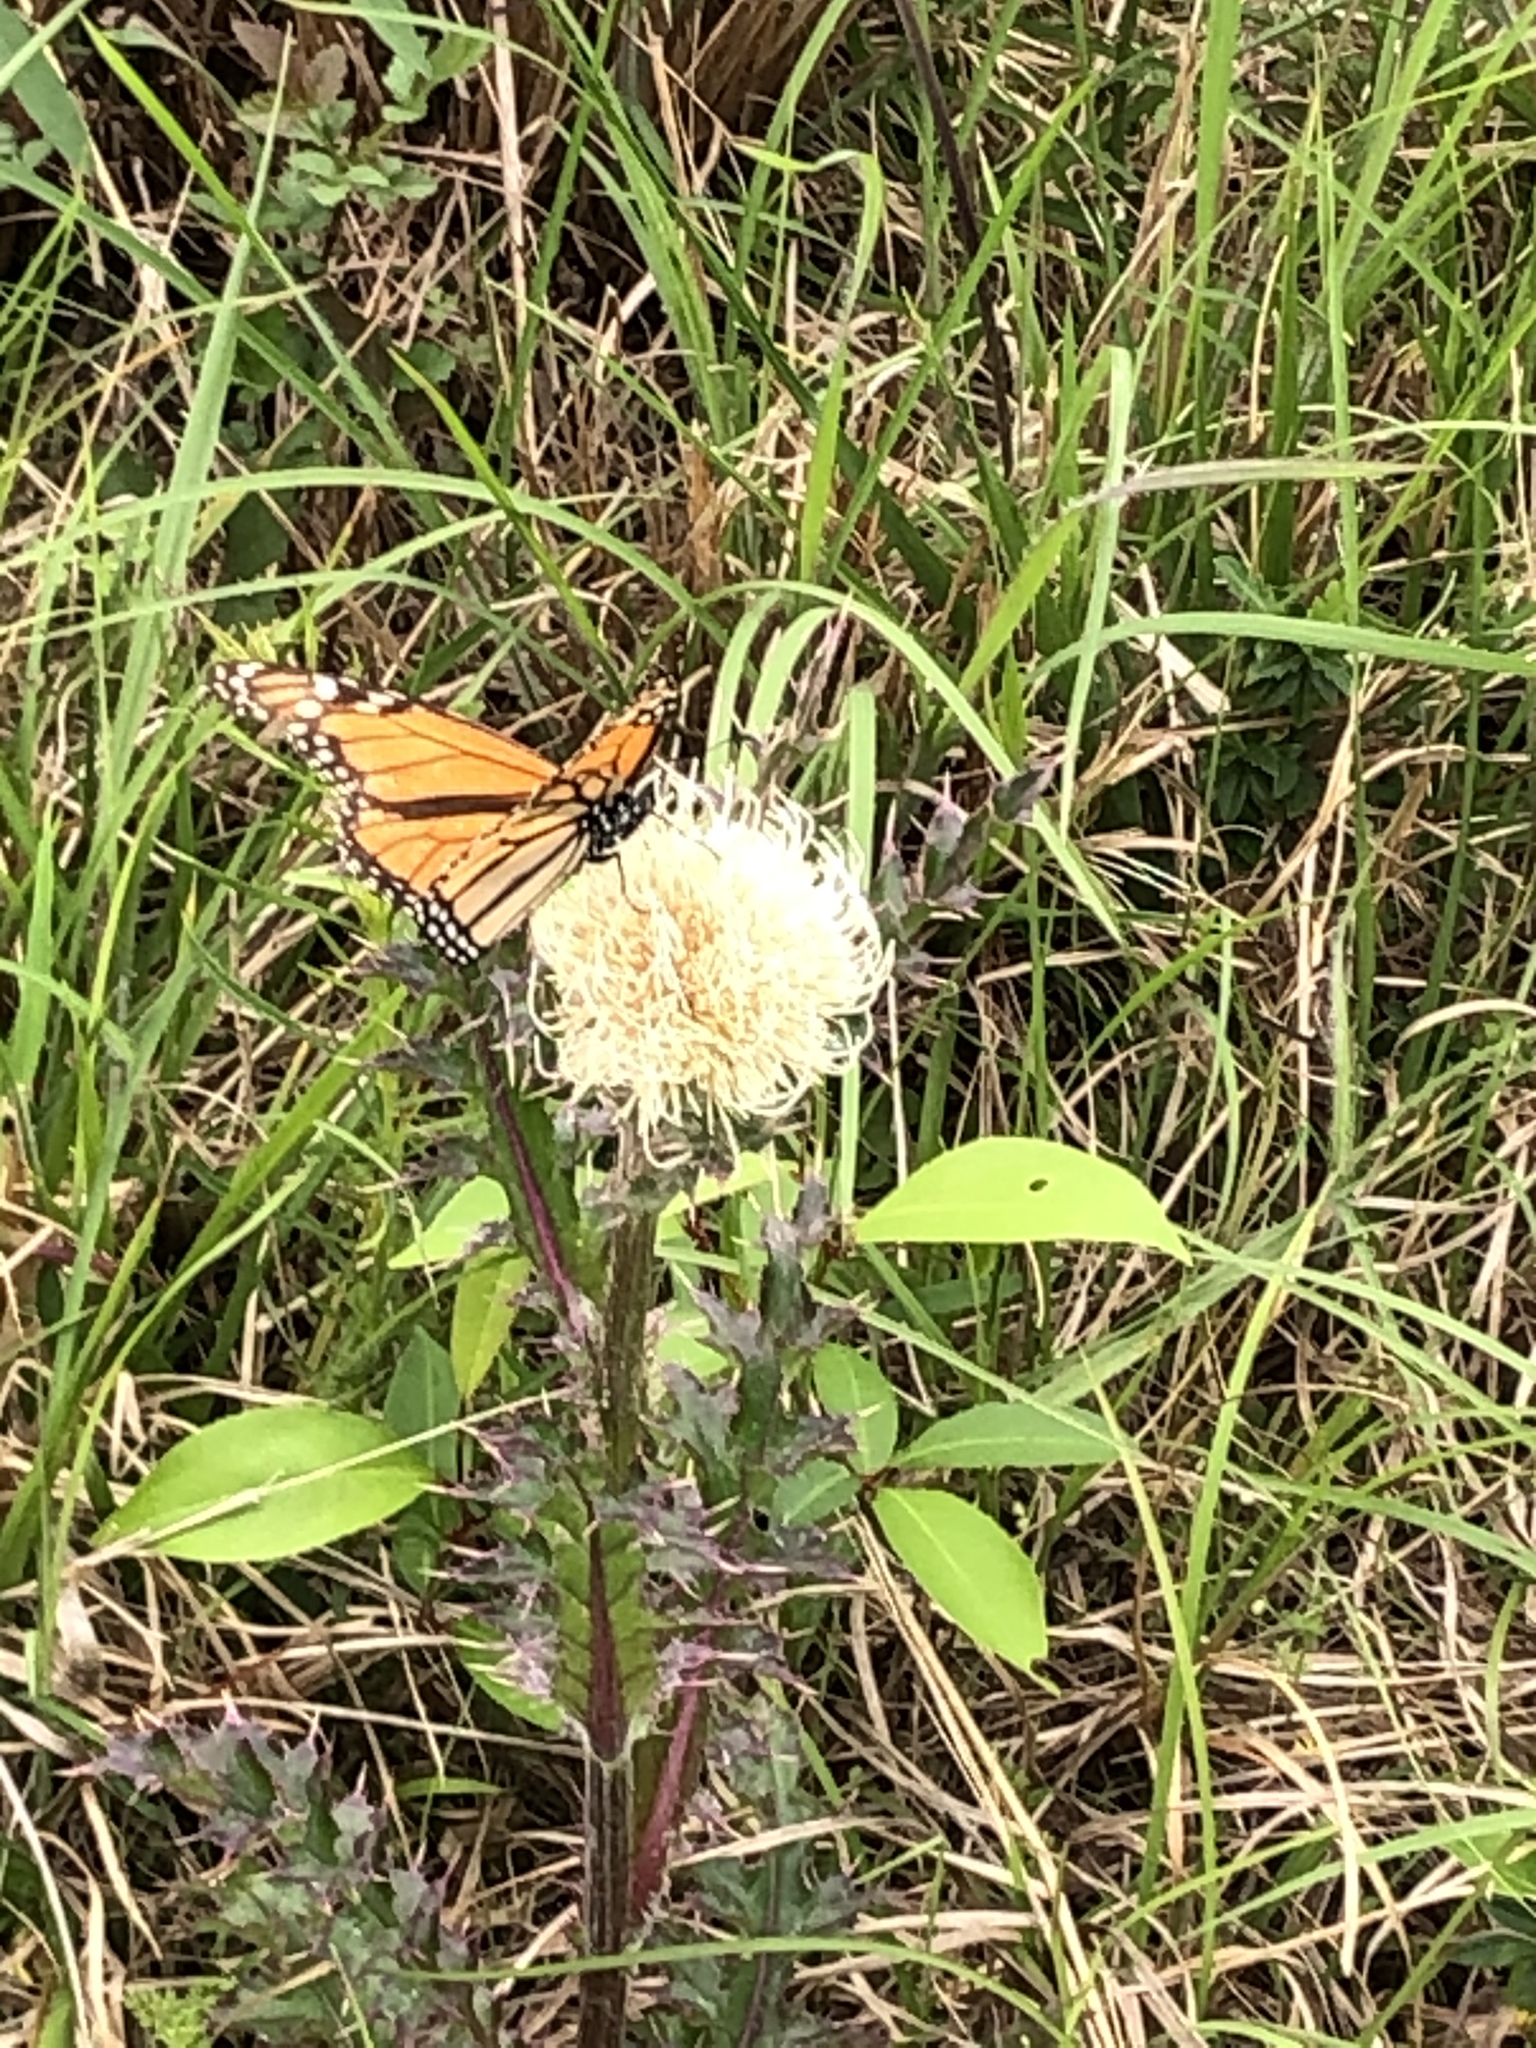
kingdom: Animalia
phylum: Arthropoda
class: Insecta
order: Lepidoptera
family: Nymphalidae
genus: Danaus
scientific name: Danaus plexippus
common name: Monarch
